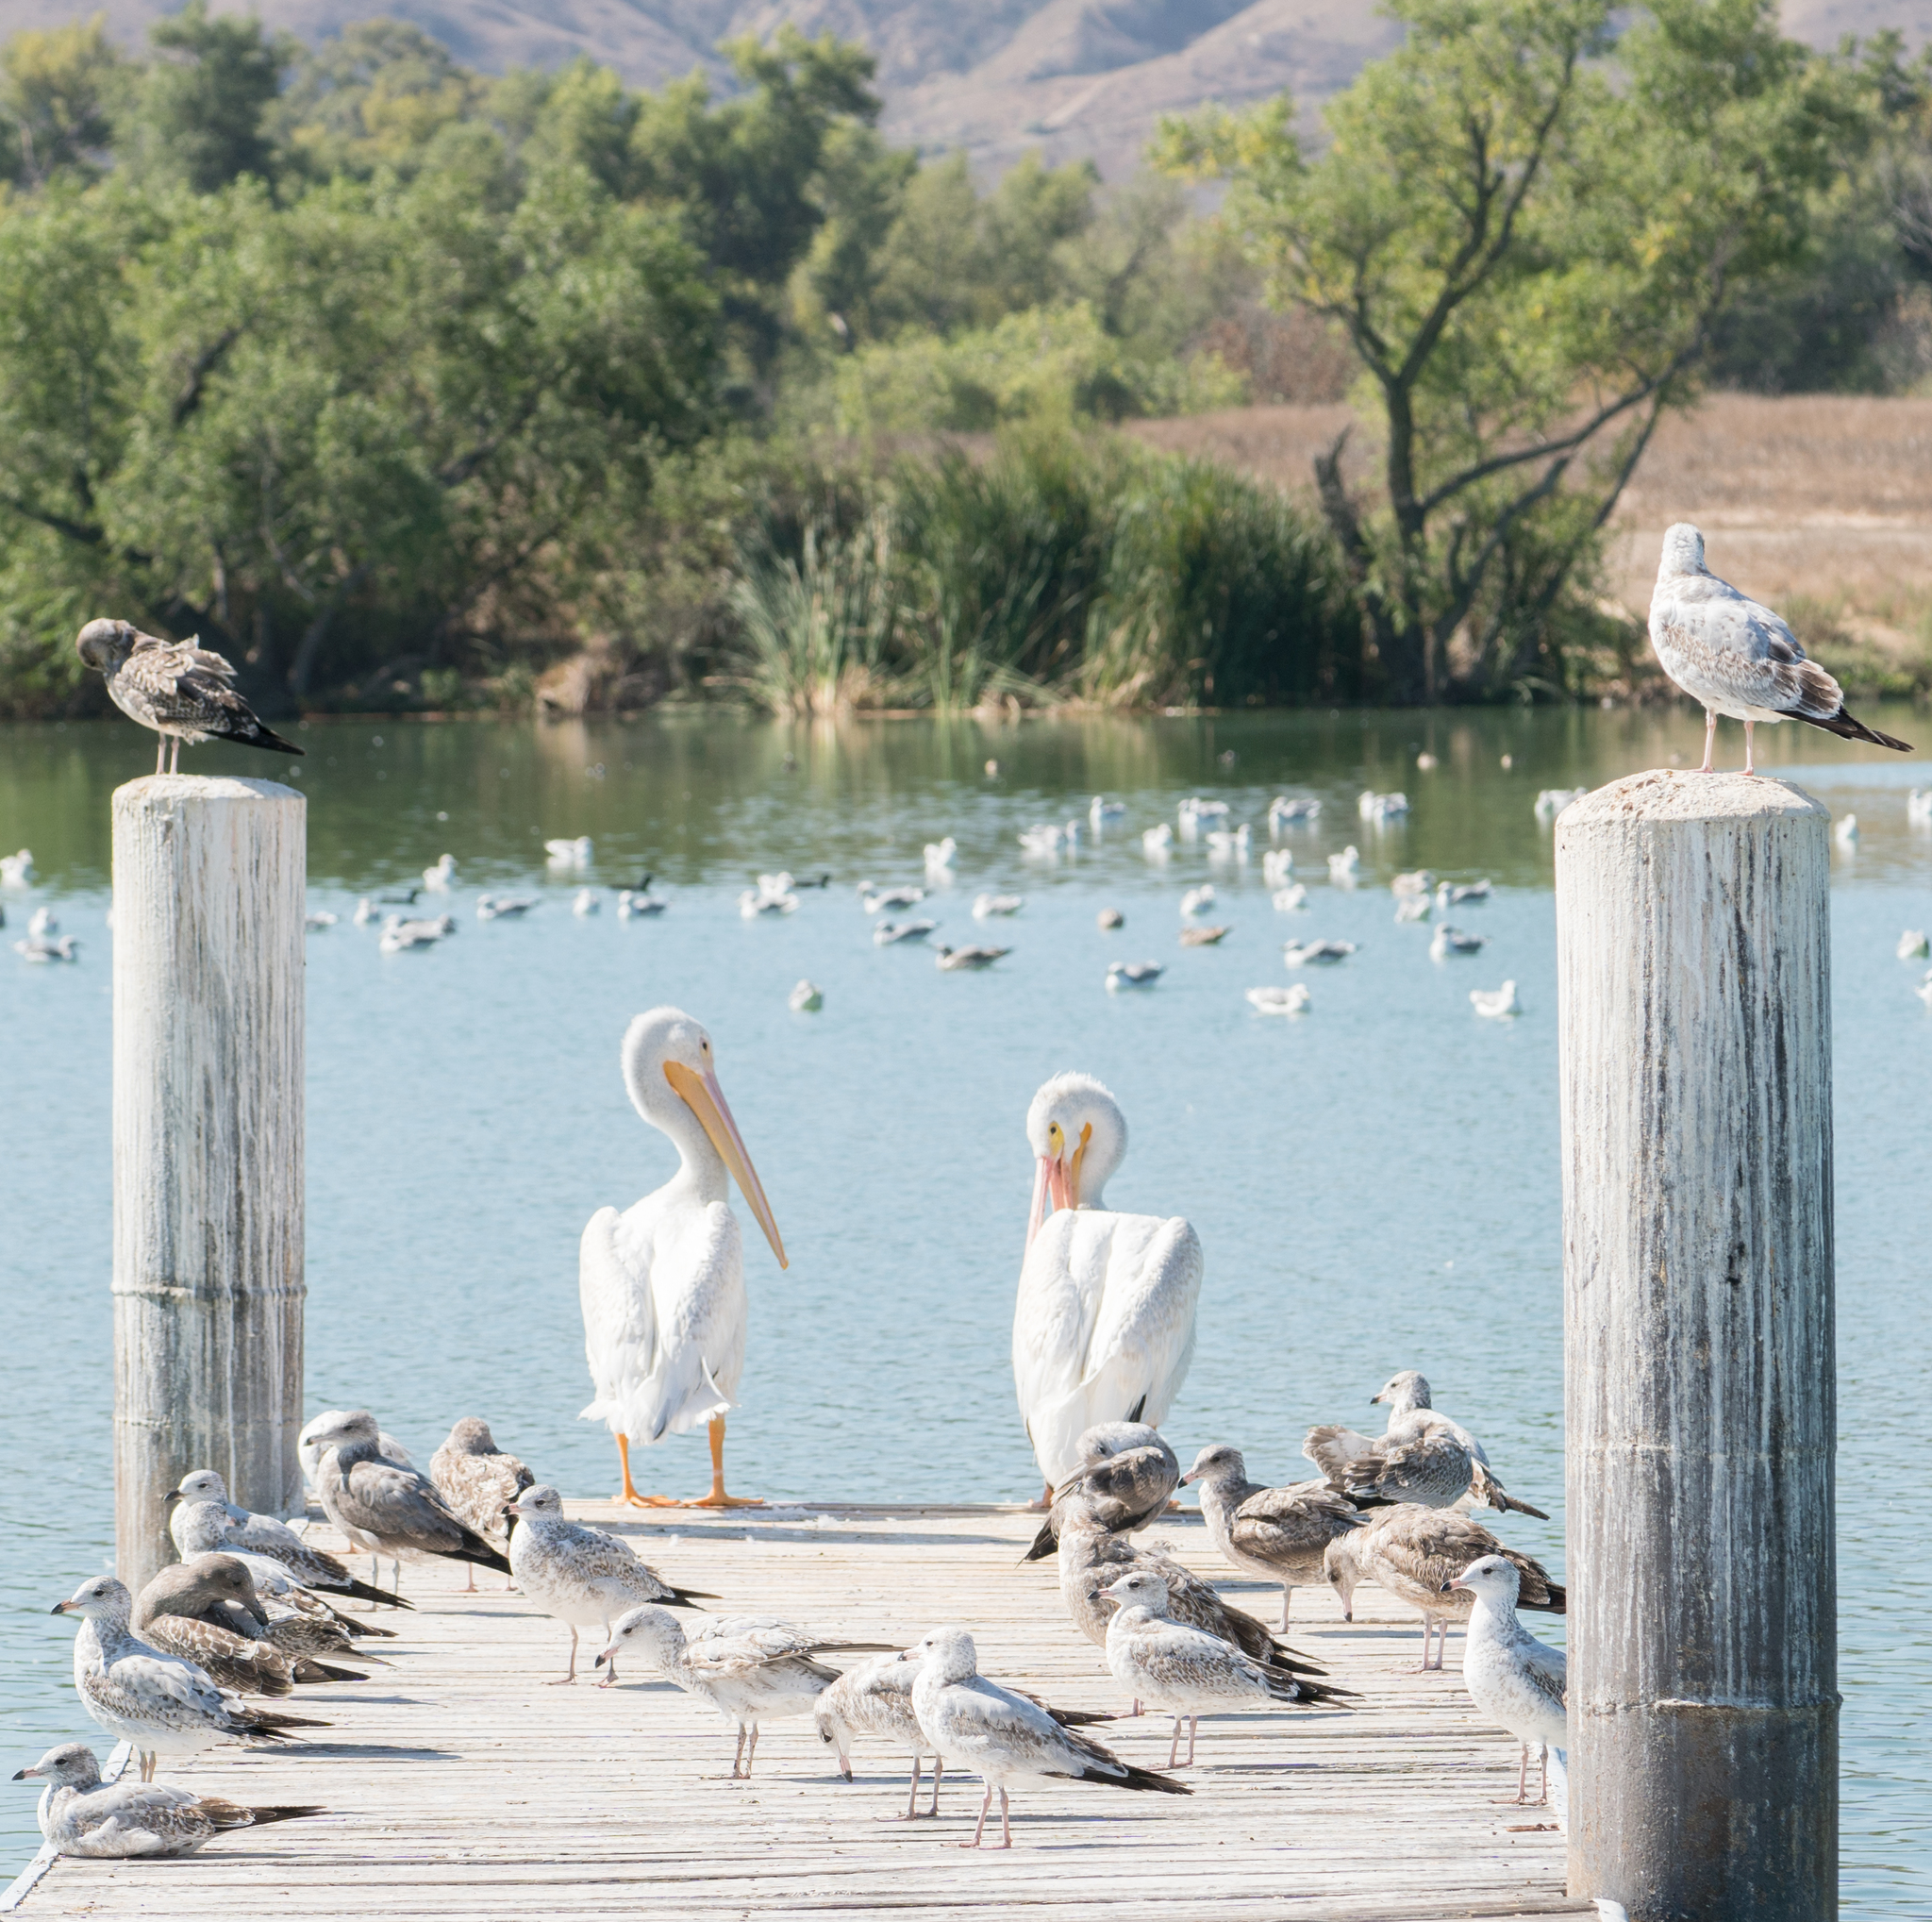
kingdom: Animalia
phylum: Chordata
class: Aves
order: Pelecaniformes
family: Pelecanidae
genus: Pelecanus
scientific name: Pelecanus erythrorhynchos
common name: American white pelican
